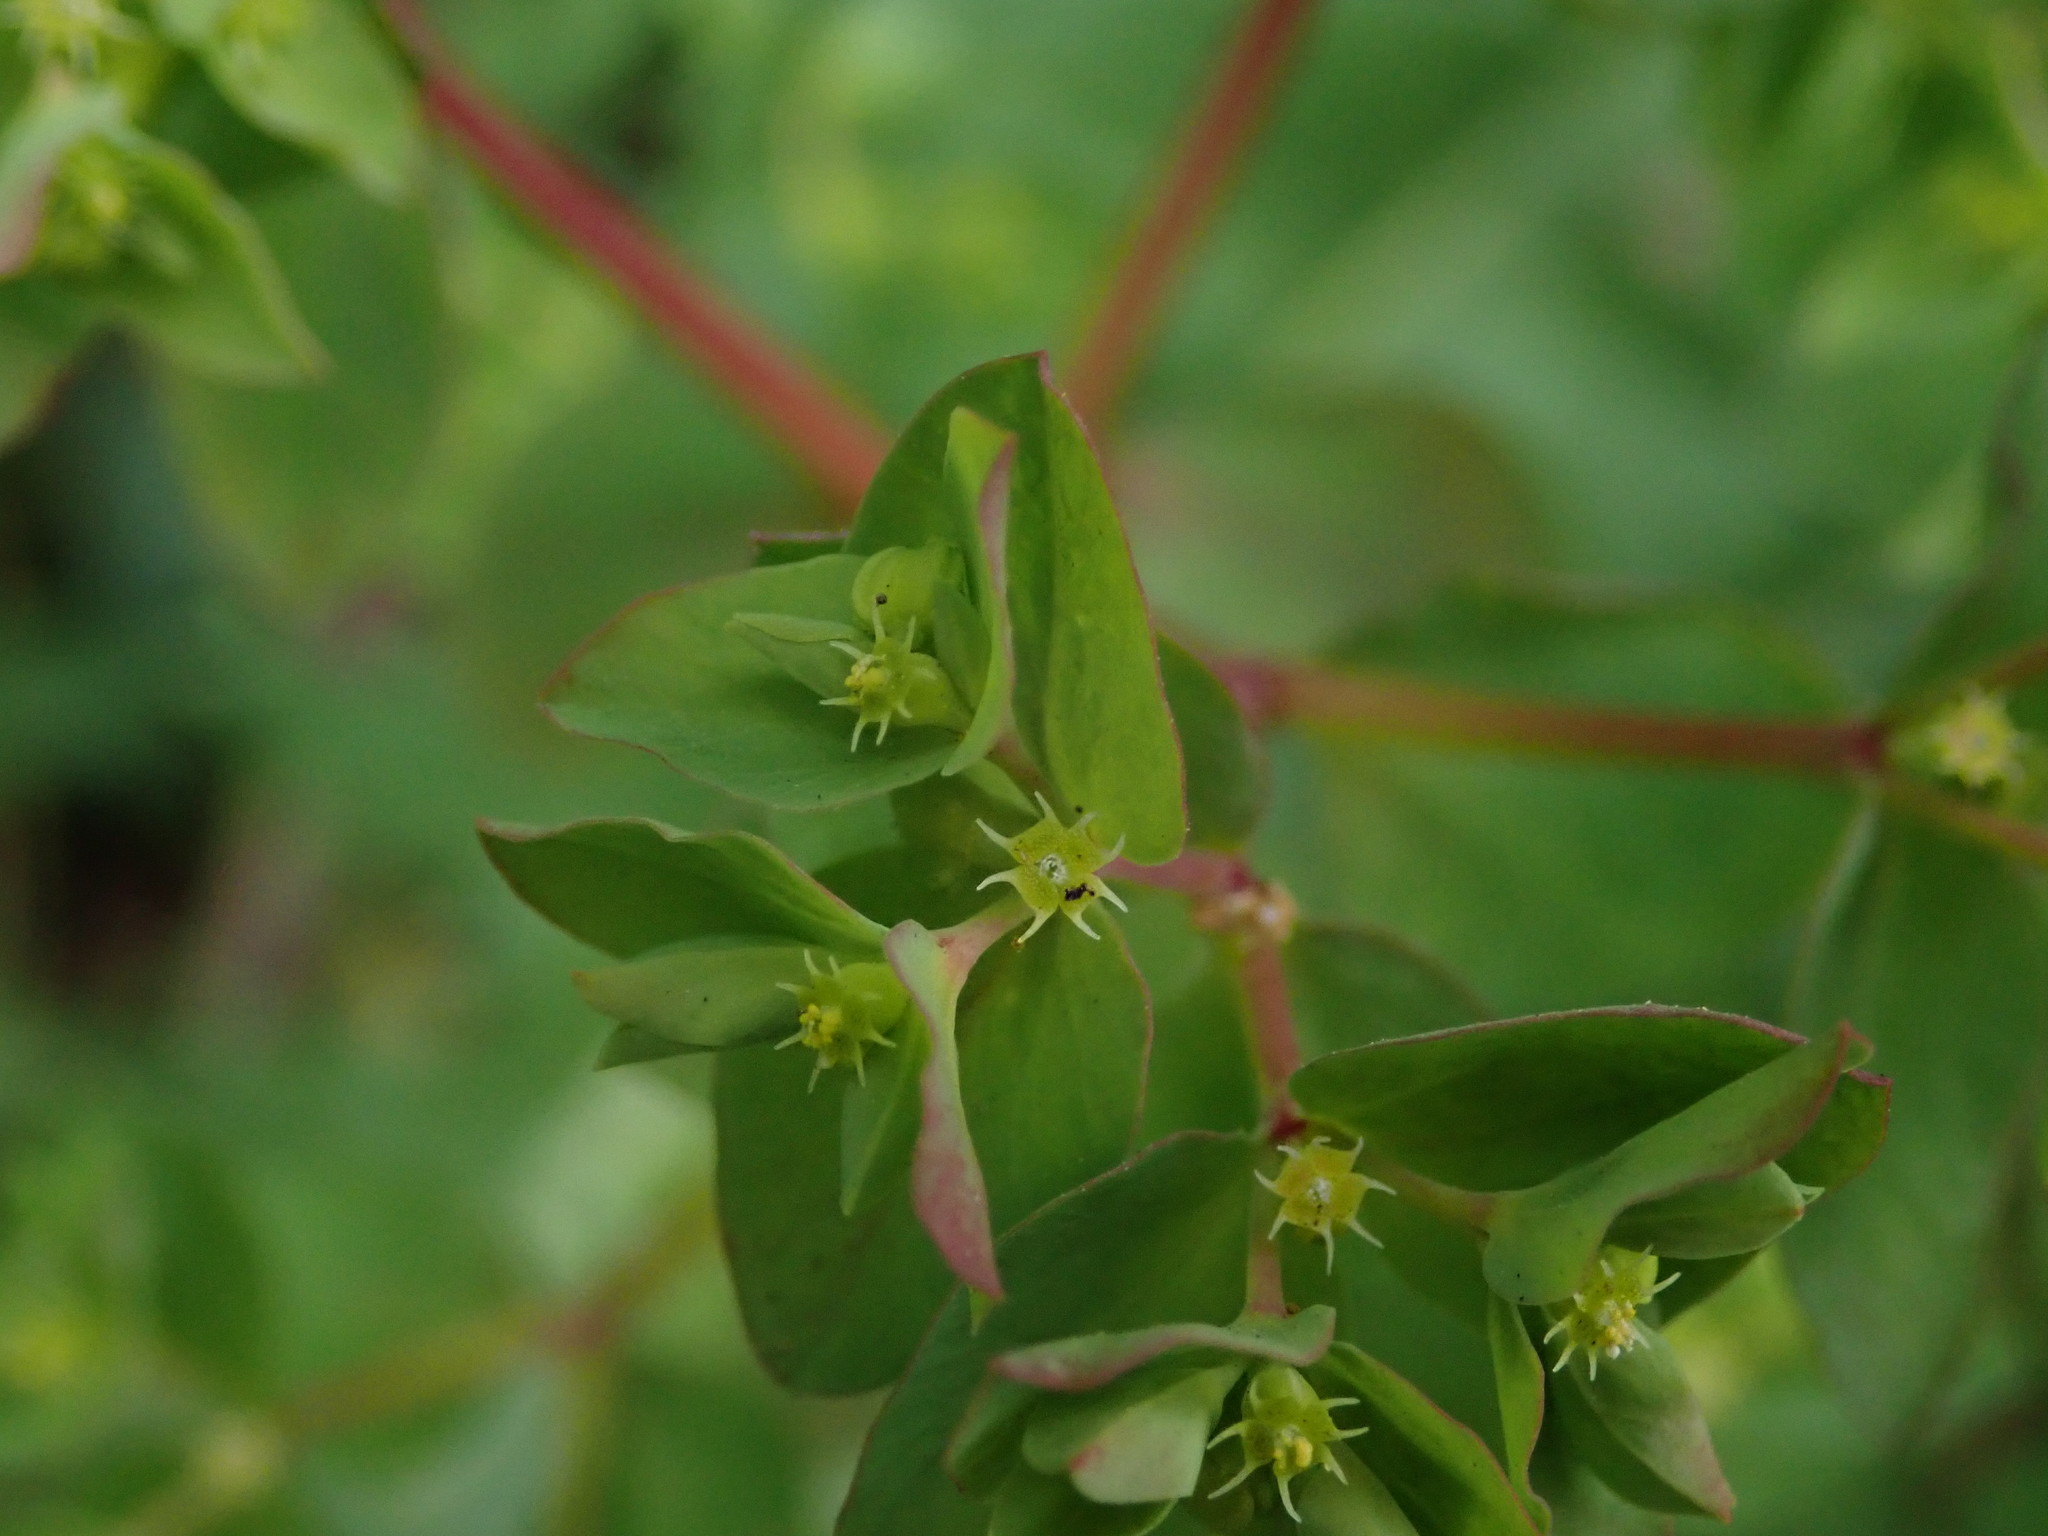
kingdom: Plantae
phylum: Tracheophyta
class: Magnoliopsida
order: Malpighiales
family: Euphorbiaceae
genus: Euphorbia
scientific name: Euphorbia peplus
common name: Petty spurge
